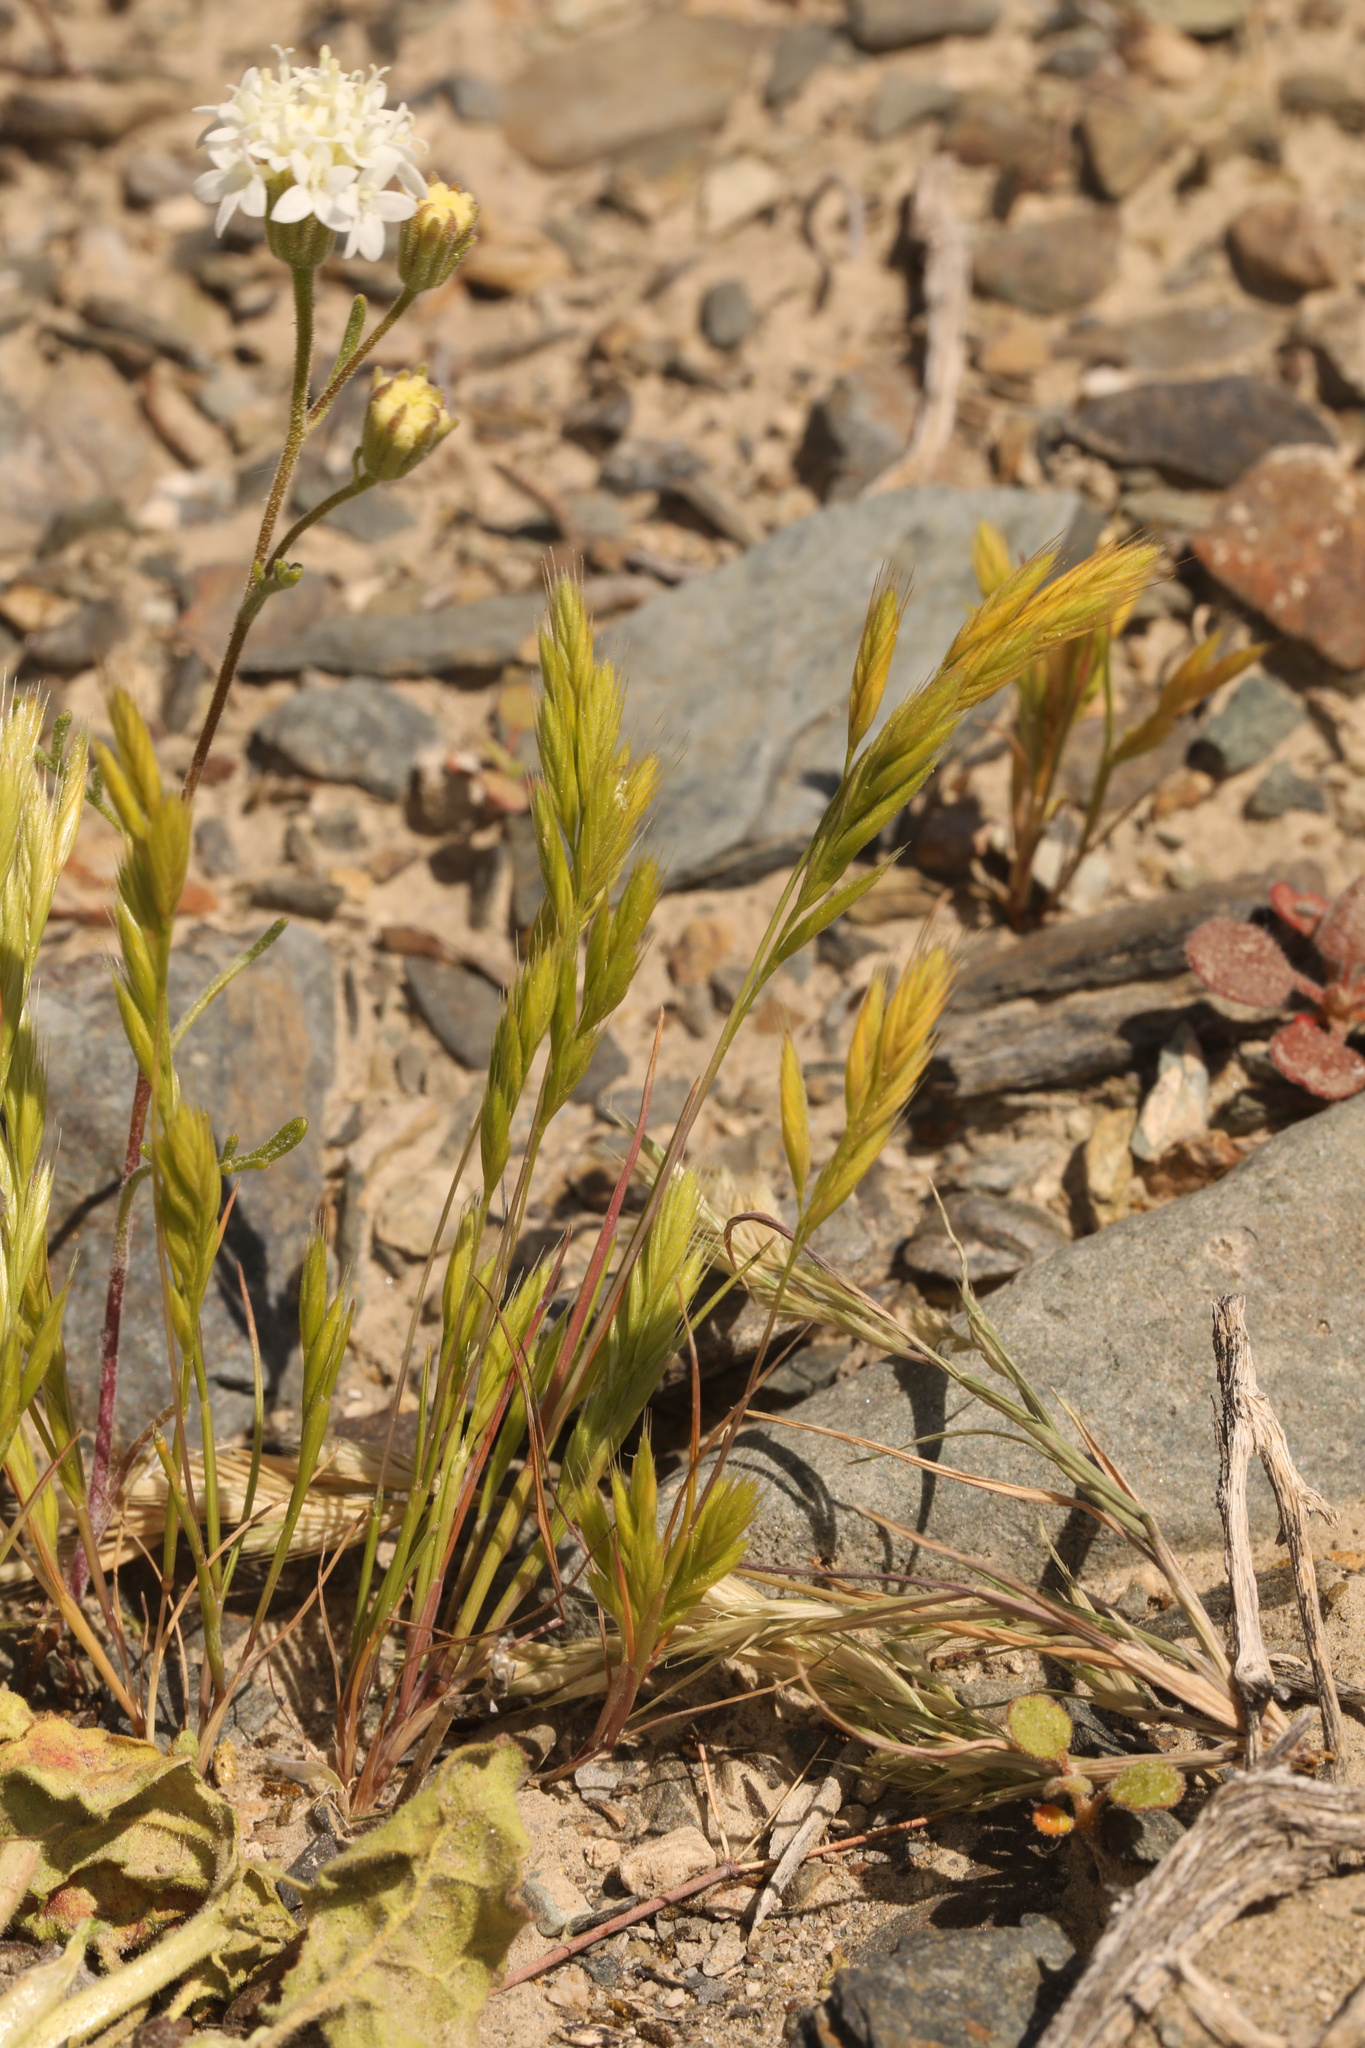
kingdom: Plantae
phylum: Tracheophyta
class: Liliopsida
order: Poales
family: Poaceae
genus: Festuca
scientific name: Festuca octoflora
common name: Sixweeks grass
